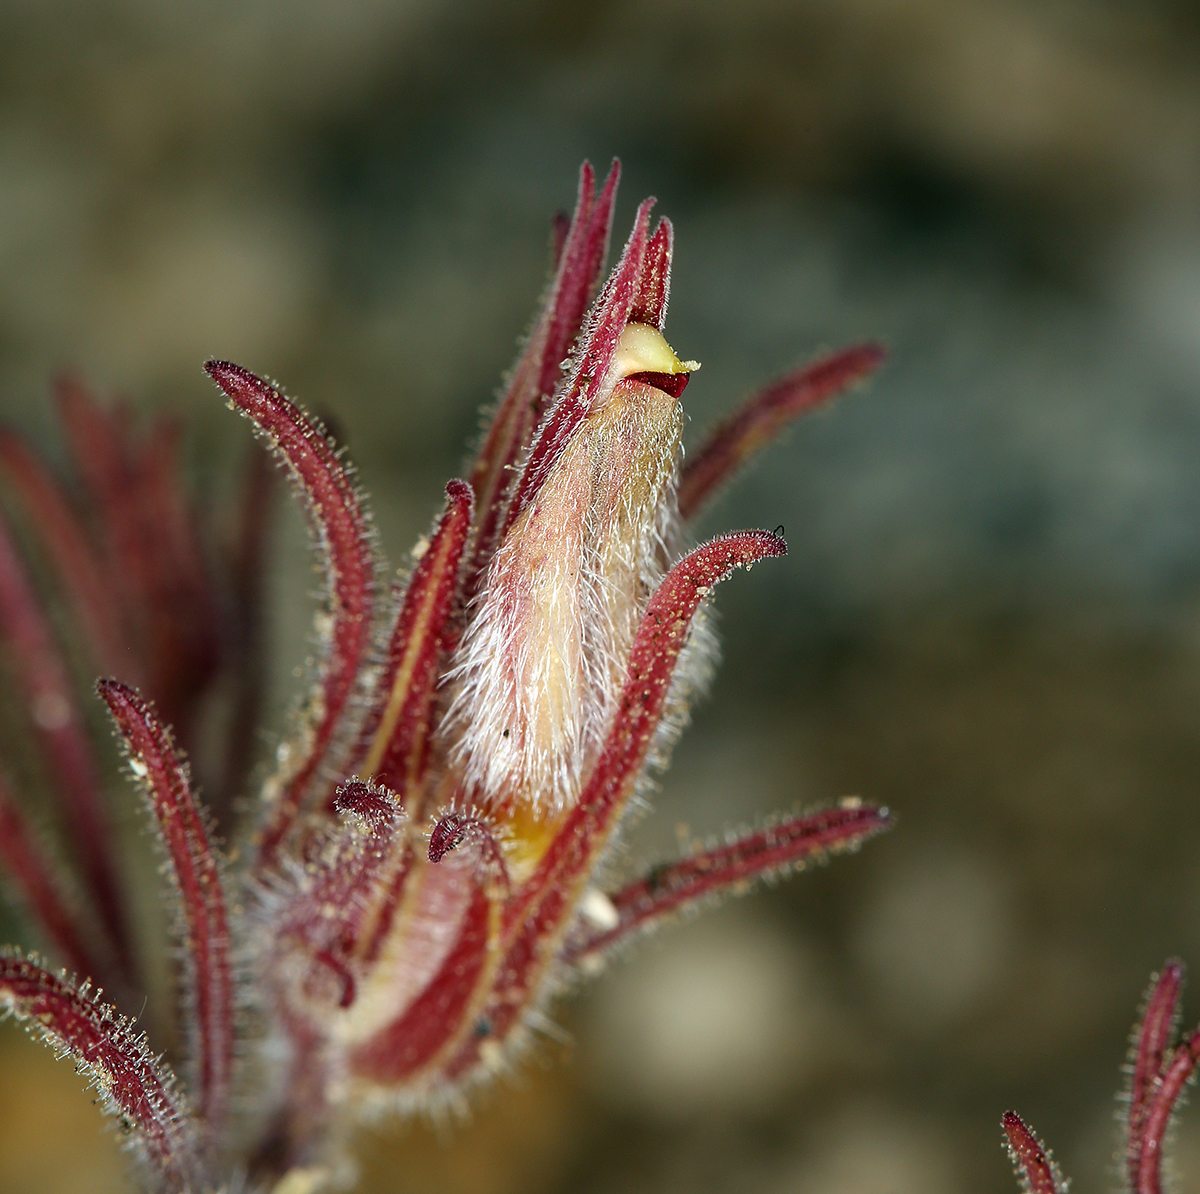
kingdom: Plantae
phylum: Tracheophyta
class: Magnoliopsida
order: Lamiales
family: Orobanchaceae
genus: Cordylanthus
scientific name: Cordylanthus kingii
